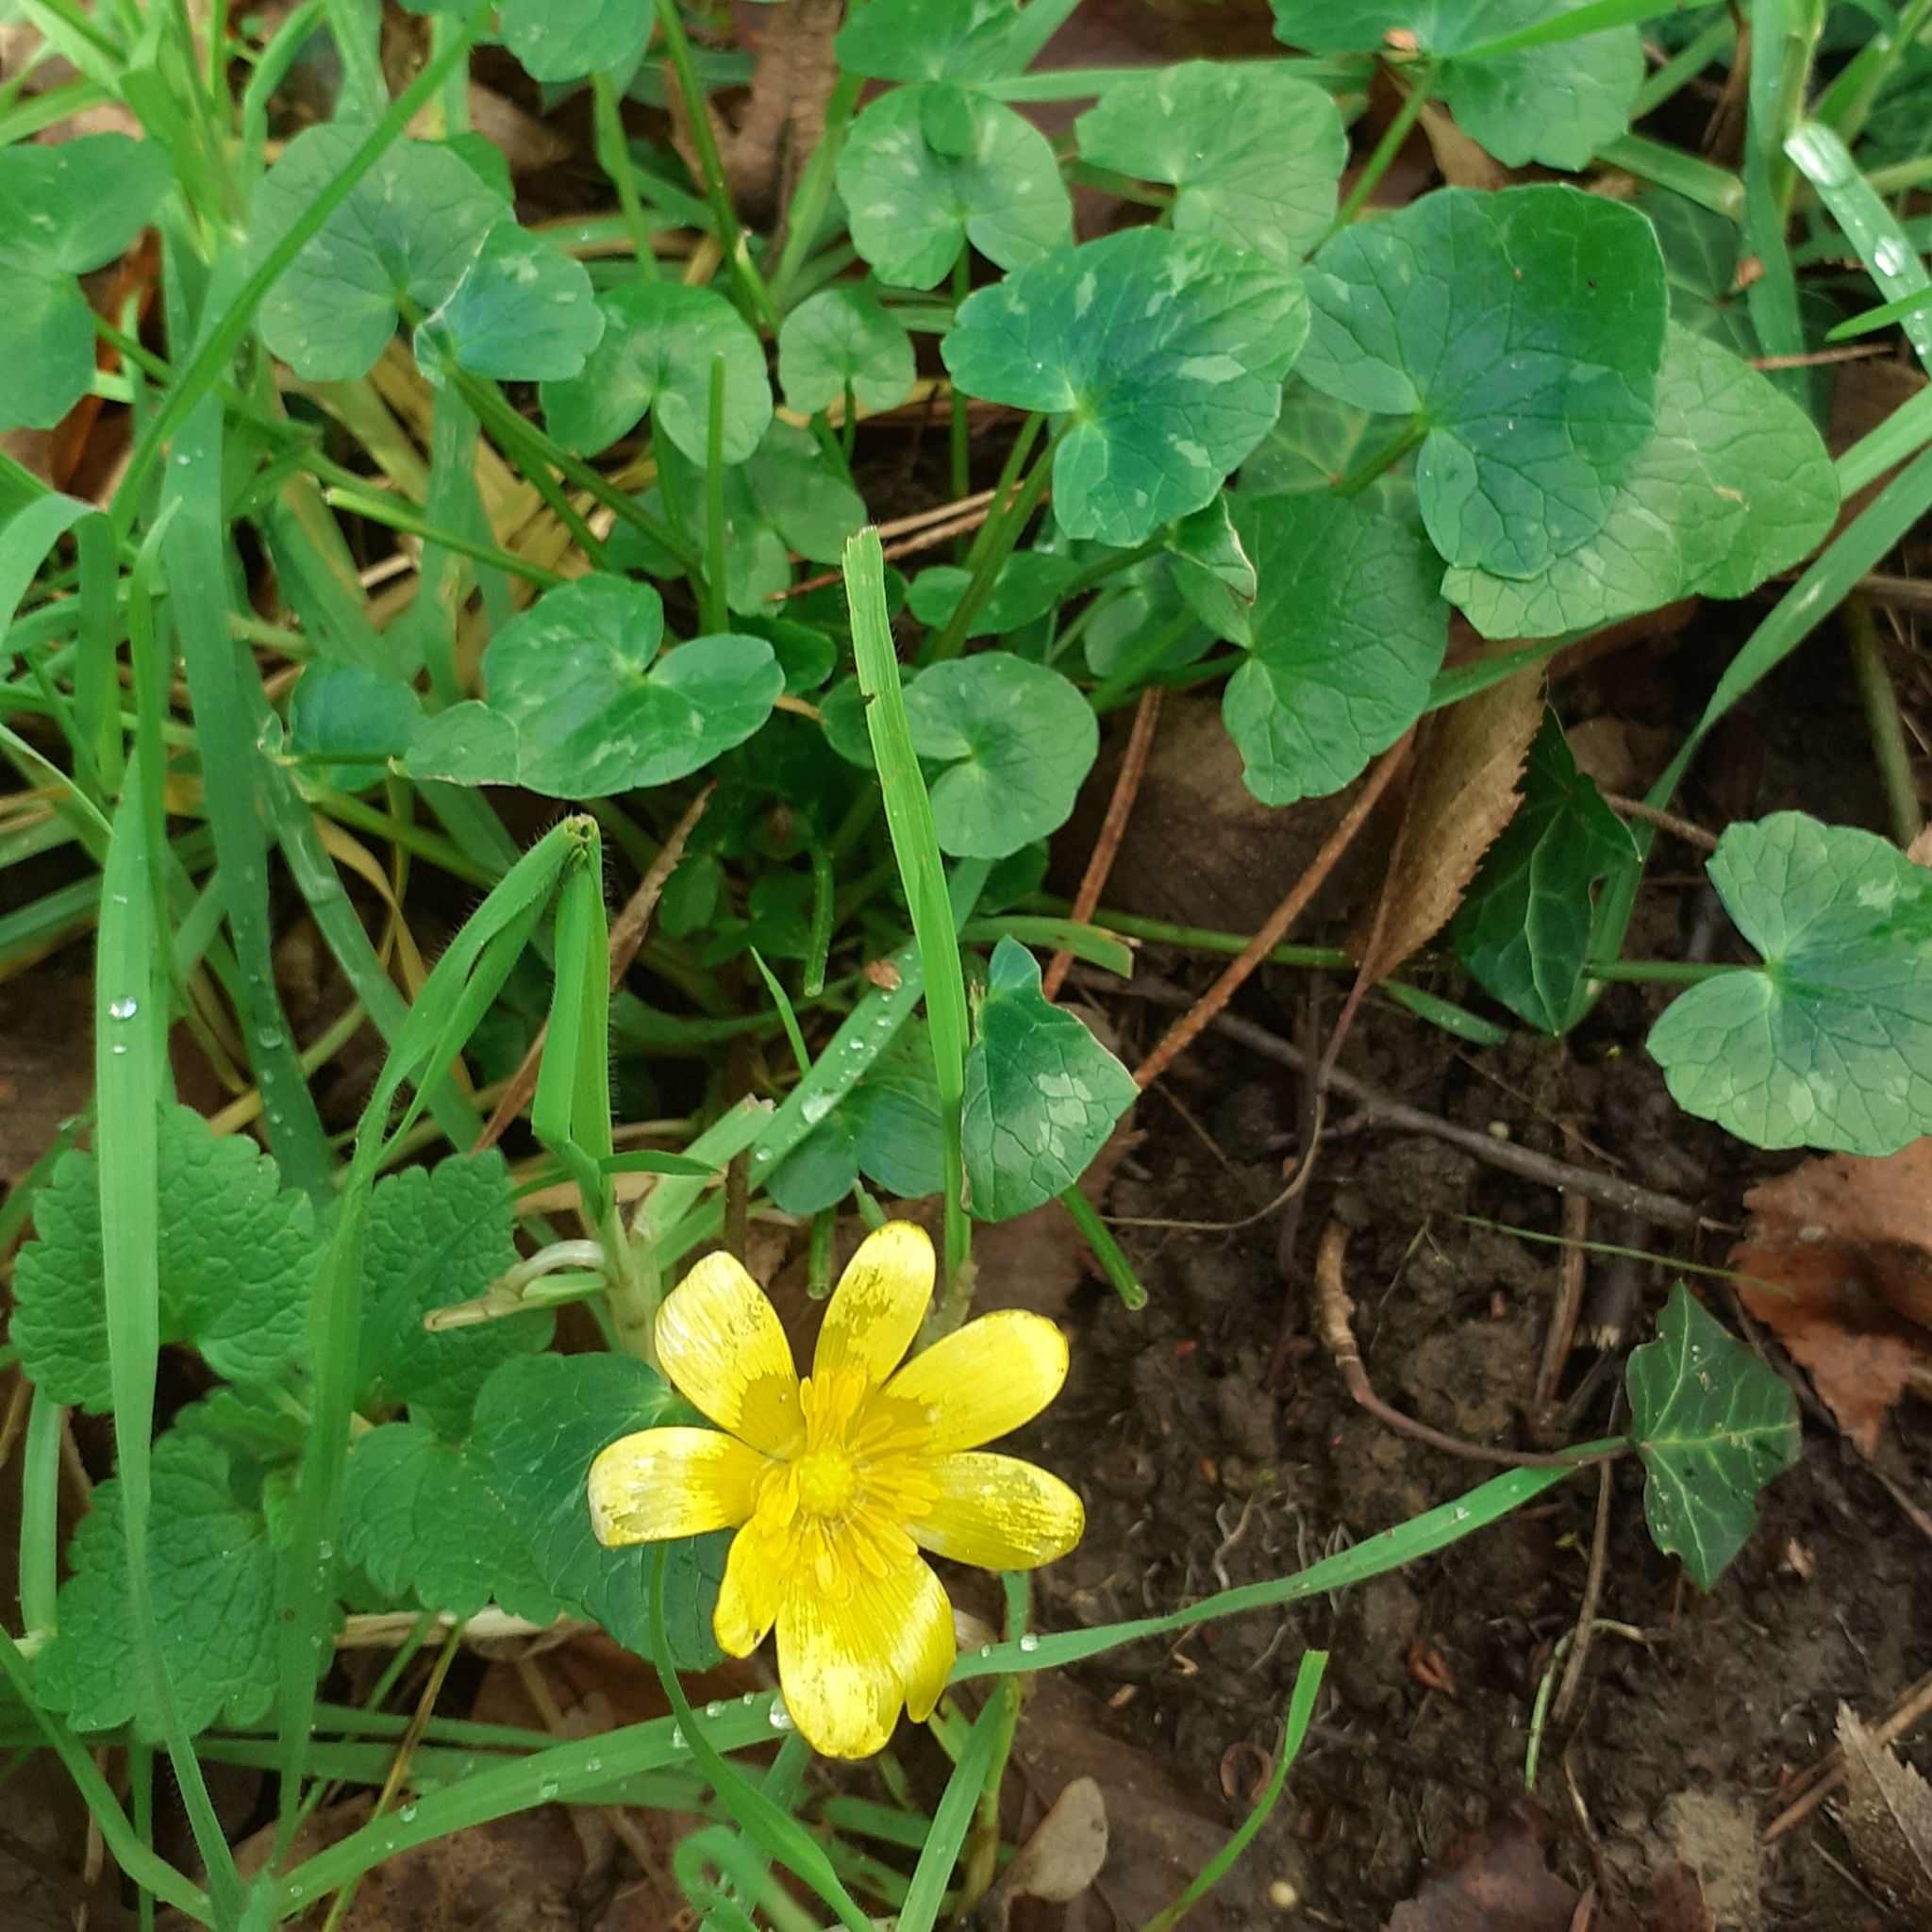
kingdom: Plantae
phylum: Tracheophyta
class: Magnoliopsida
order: Ranunculales
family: Ranunculaceae
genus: Ficaria
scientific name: Ficaria verna
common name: Lesser celandine
